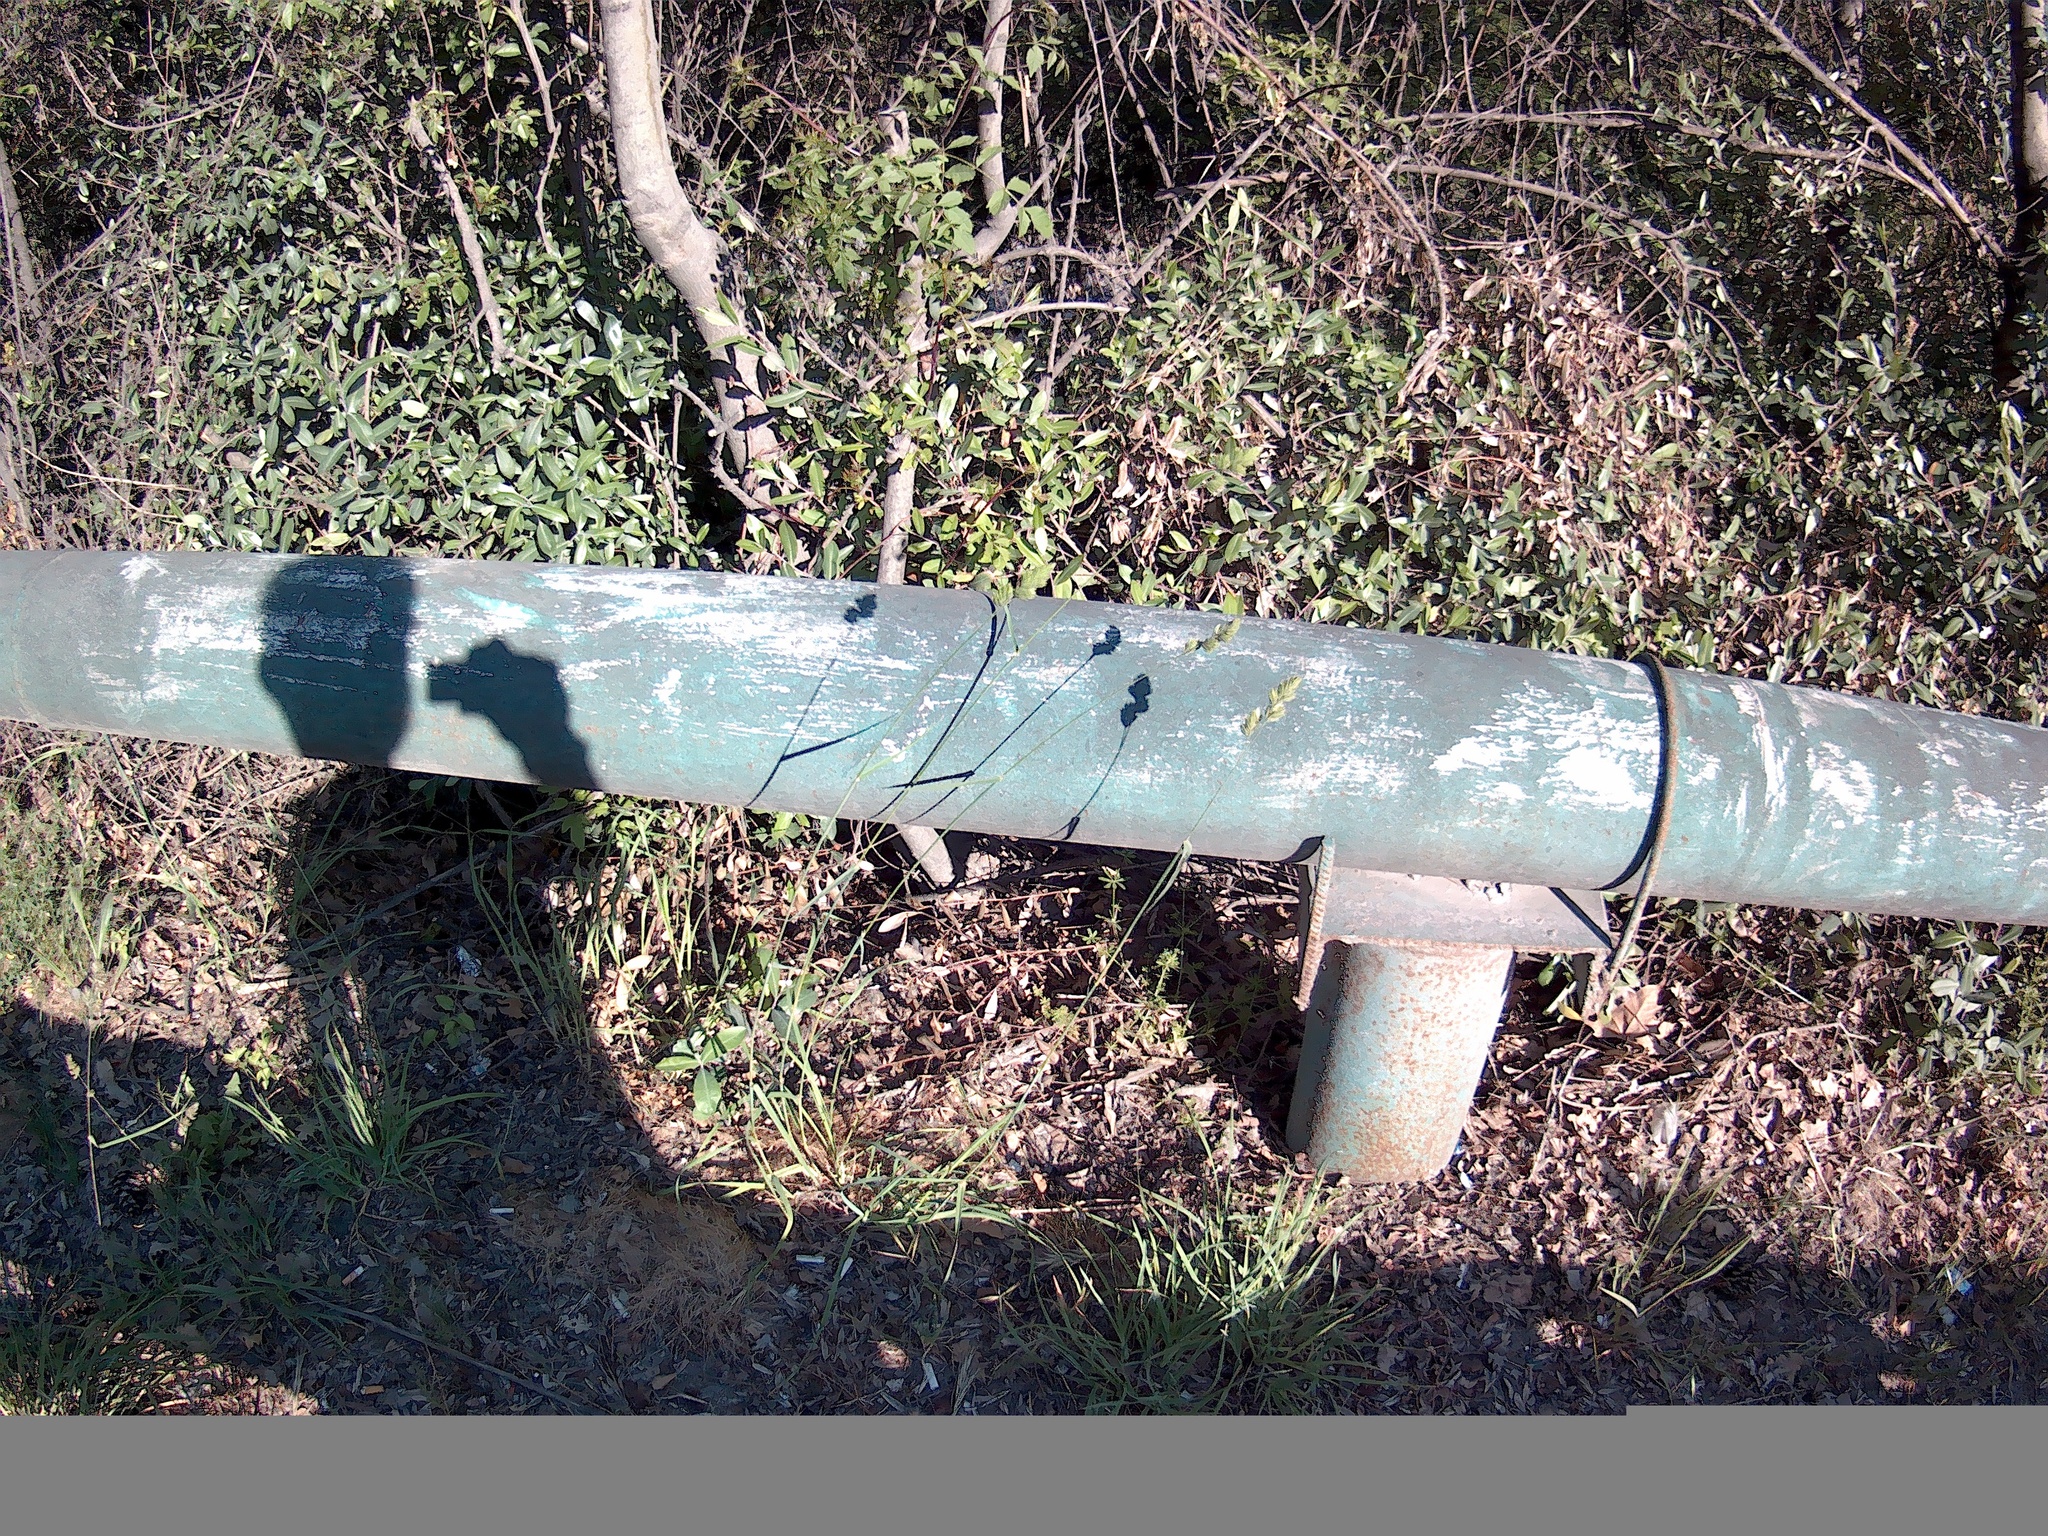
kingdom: Plantae
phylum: Tracheophyta
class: Liliopsida
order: Poales
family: Poaceae
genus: Dactylis
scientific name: Dactylis glomerata
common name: Orchardgrass
